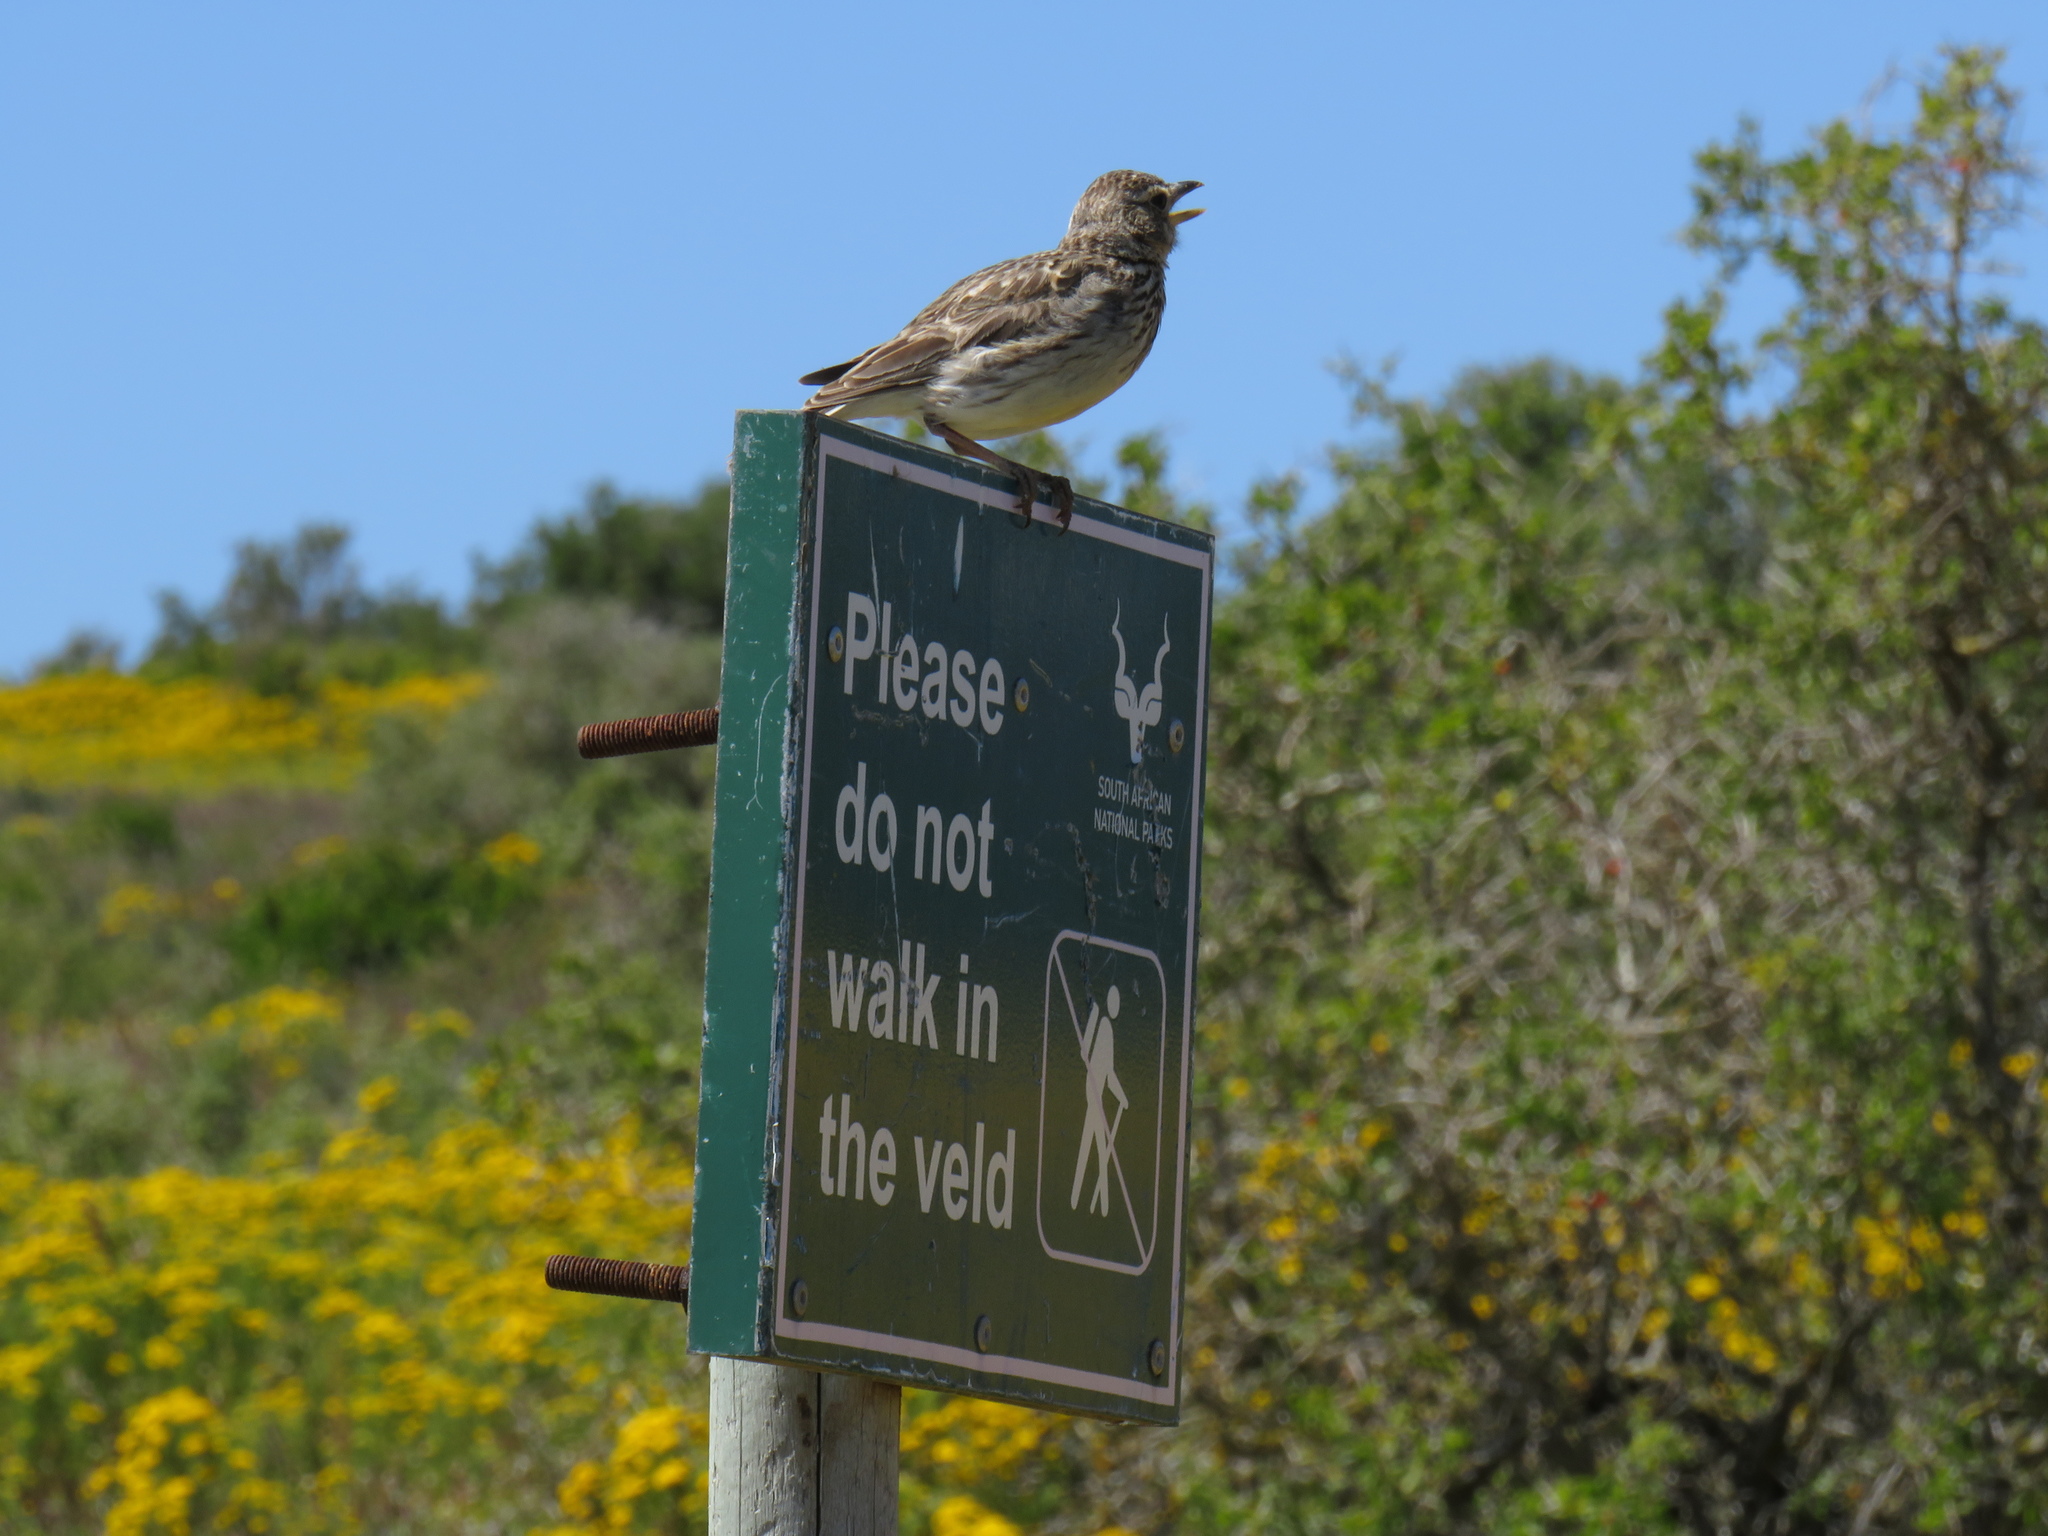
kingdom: Animalia
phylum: Chordata
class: Aves
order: Passeriformes
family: Alaudidae
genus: Galerida
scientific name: Galerida magnirostris
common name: Large-billed lark
